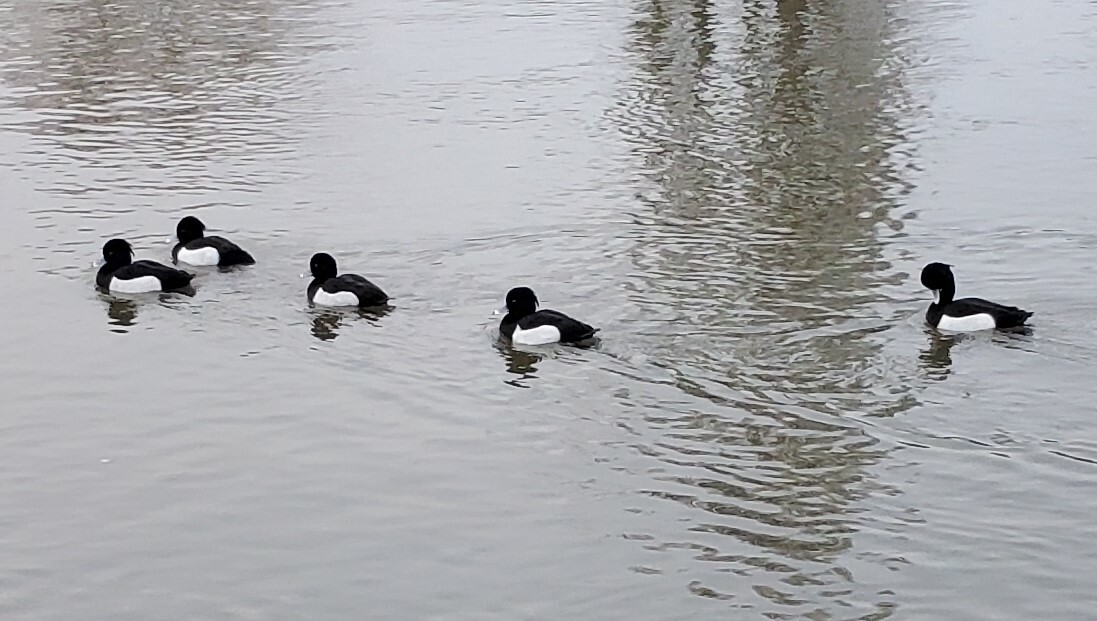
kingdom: Animalia
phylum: Chordata
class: Aves
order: Anseriformes
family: Anatidae
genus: Aythya
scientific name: Aythya fuligula
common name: Tufted duck
